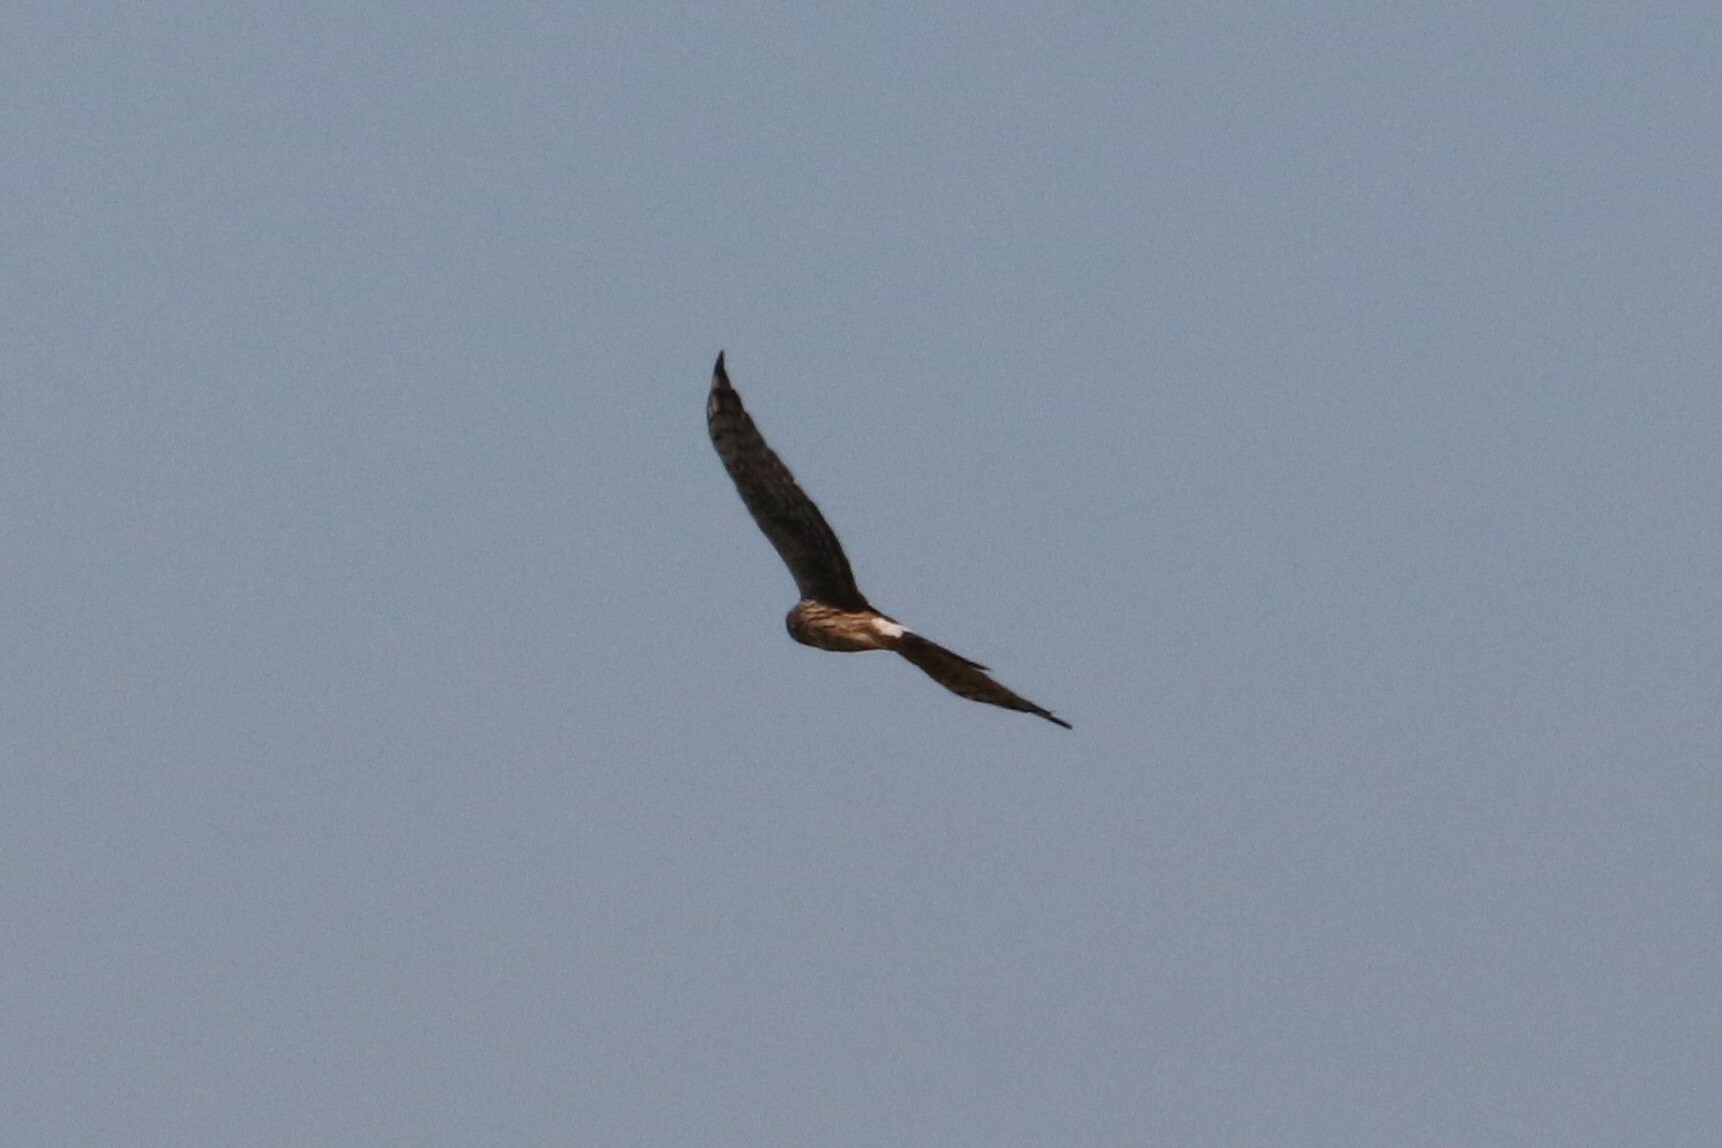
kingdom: Animalia
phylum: Chordata
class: Aves
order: Accipitriformes
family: Accipitridae
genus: Circus
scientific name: Circus cyaneus
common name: Hen harrier
